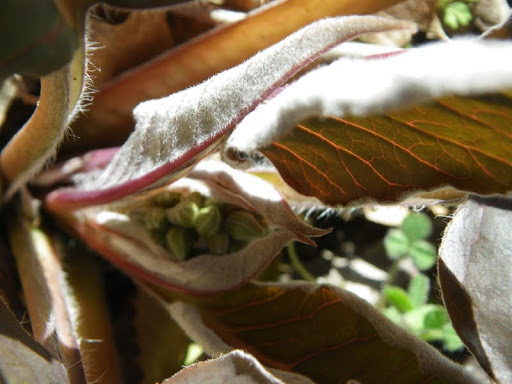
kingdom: Plantae
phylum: Tracheophyta
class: Magnoliopsida
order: Gentianales
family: Apocynaceae
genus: Asclepias
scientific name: Asclepias cordifolia
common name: Purple milkweed
